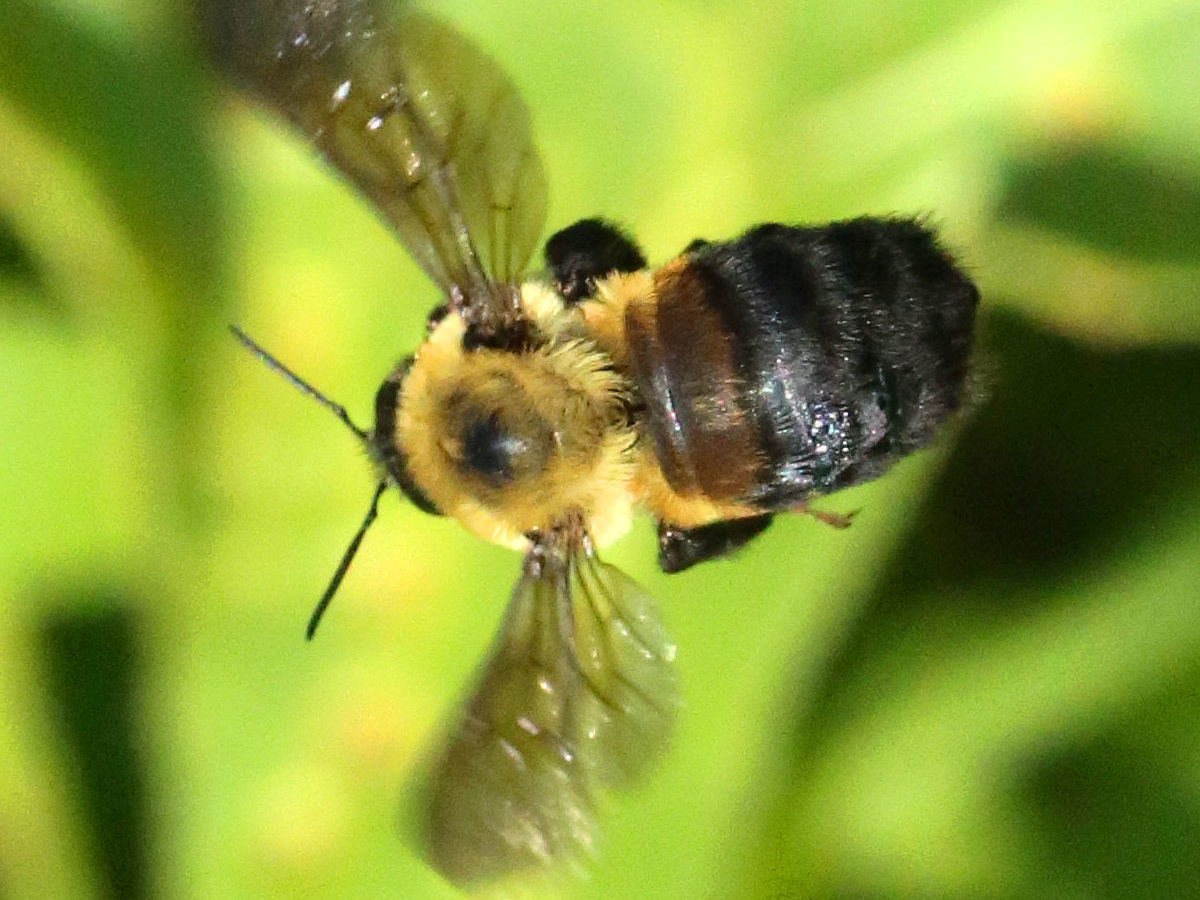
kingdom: Animalia
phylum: Arthropoda
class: Insecta
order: Hymenoptera
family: Apidae
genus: Bombus
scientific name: Bombus griseocollis
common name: Brown-belted bumble bee
